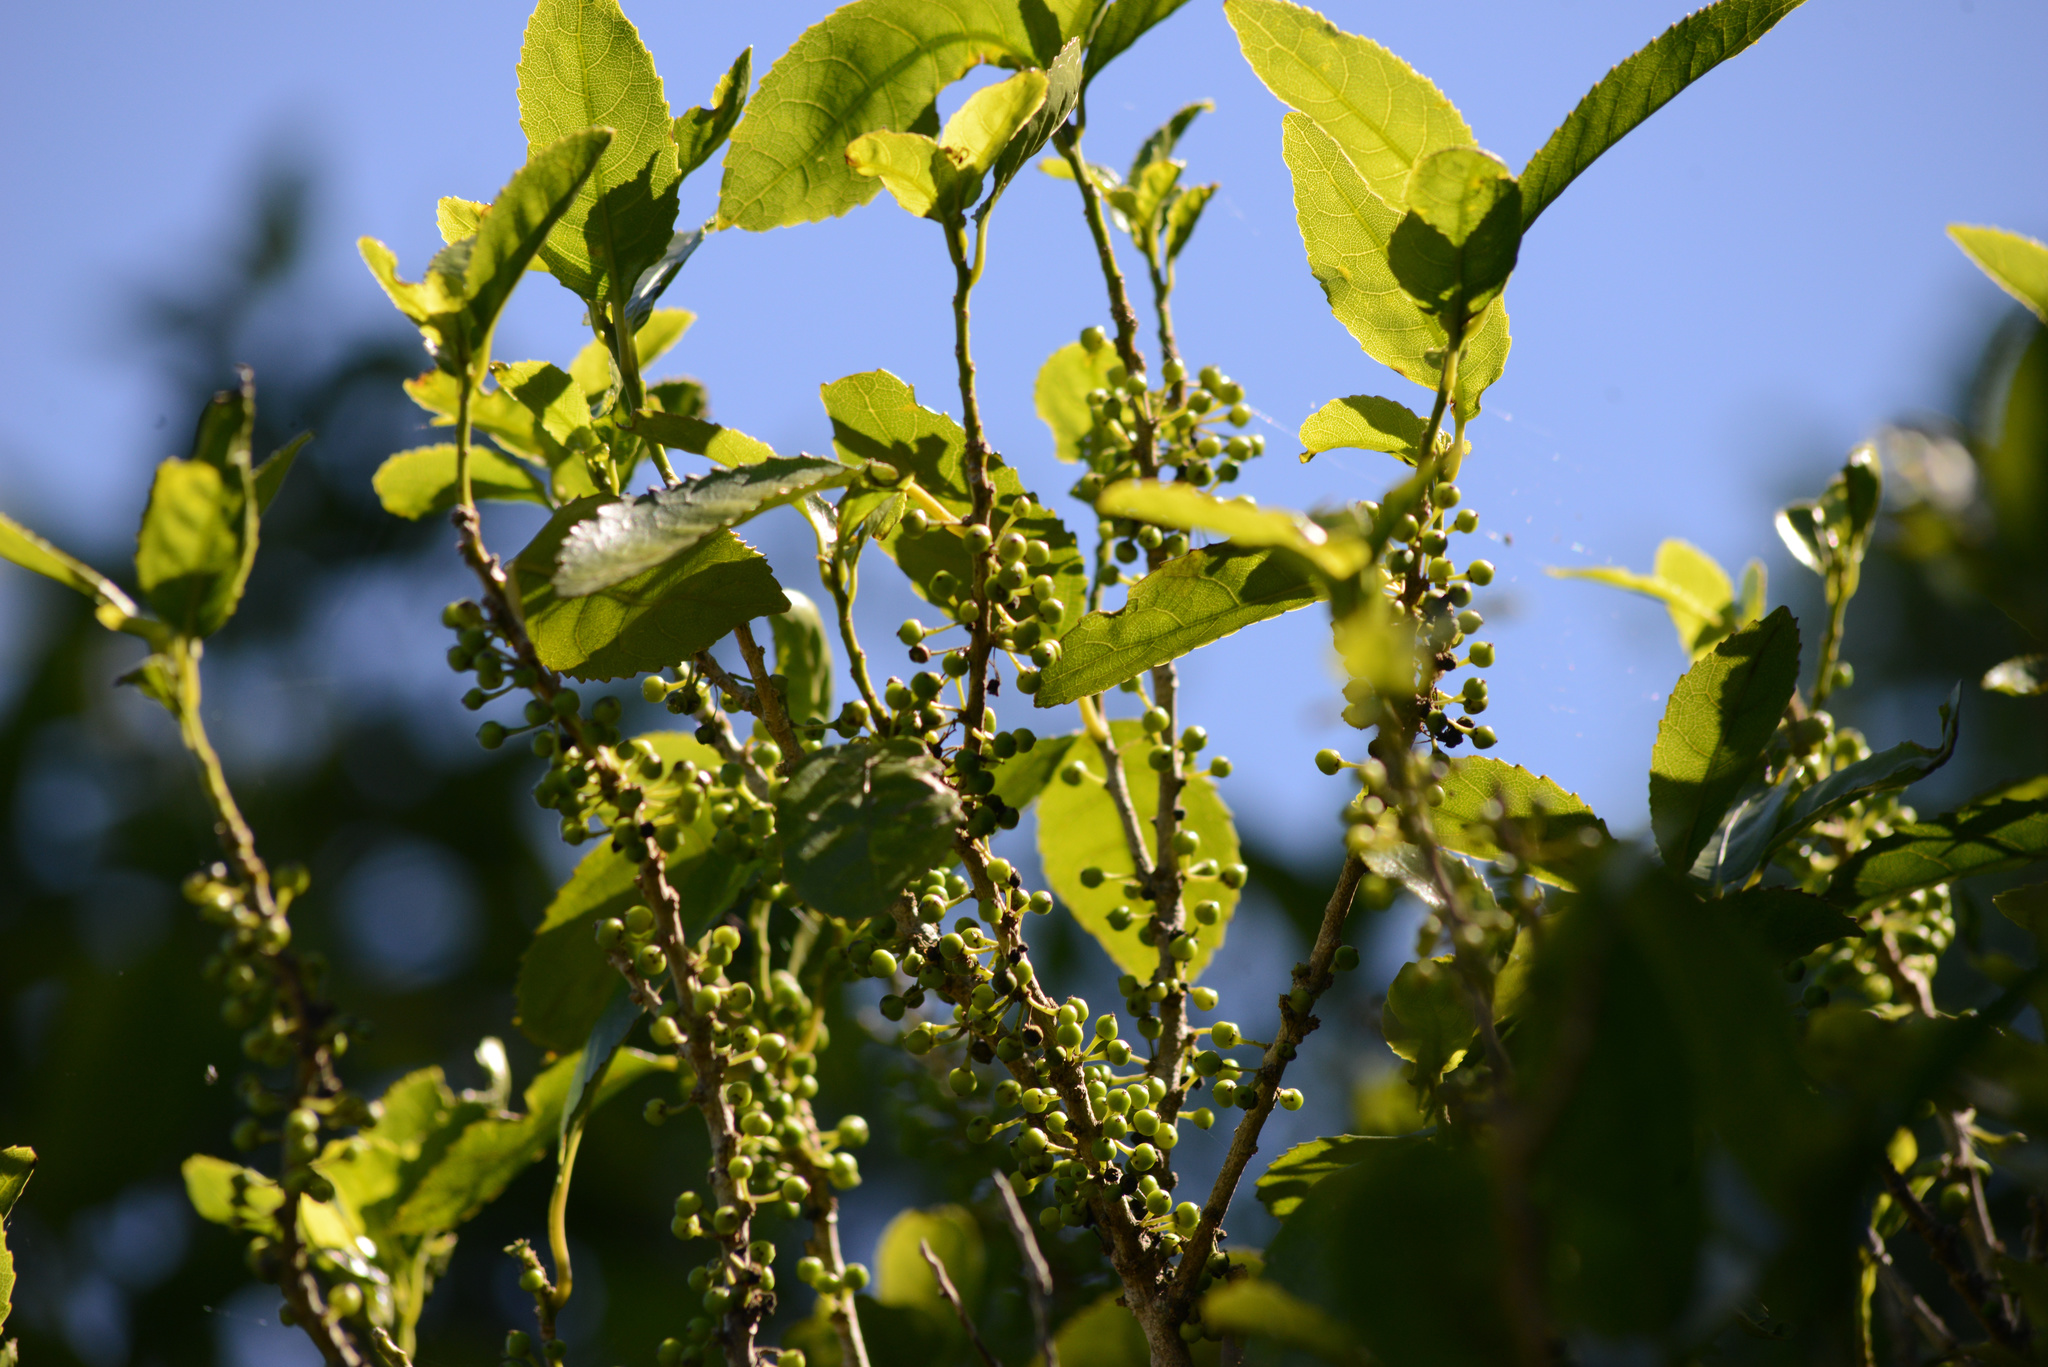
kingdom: Plantae
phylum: Tracheophyta
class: Magnoliopsida
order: Malpighiales
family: Violaceae
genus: Melicytus
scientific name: Melicytus ramiflorus
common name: Mahoe
